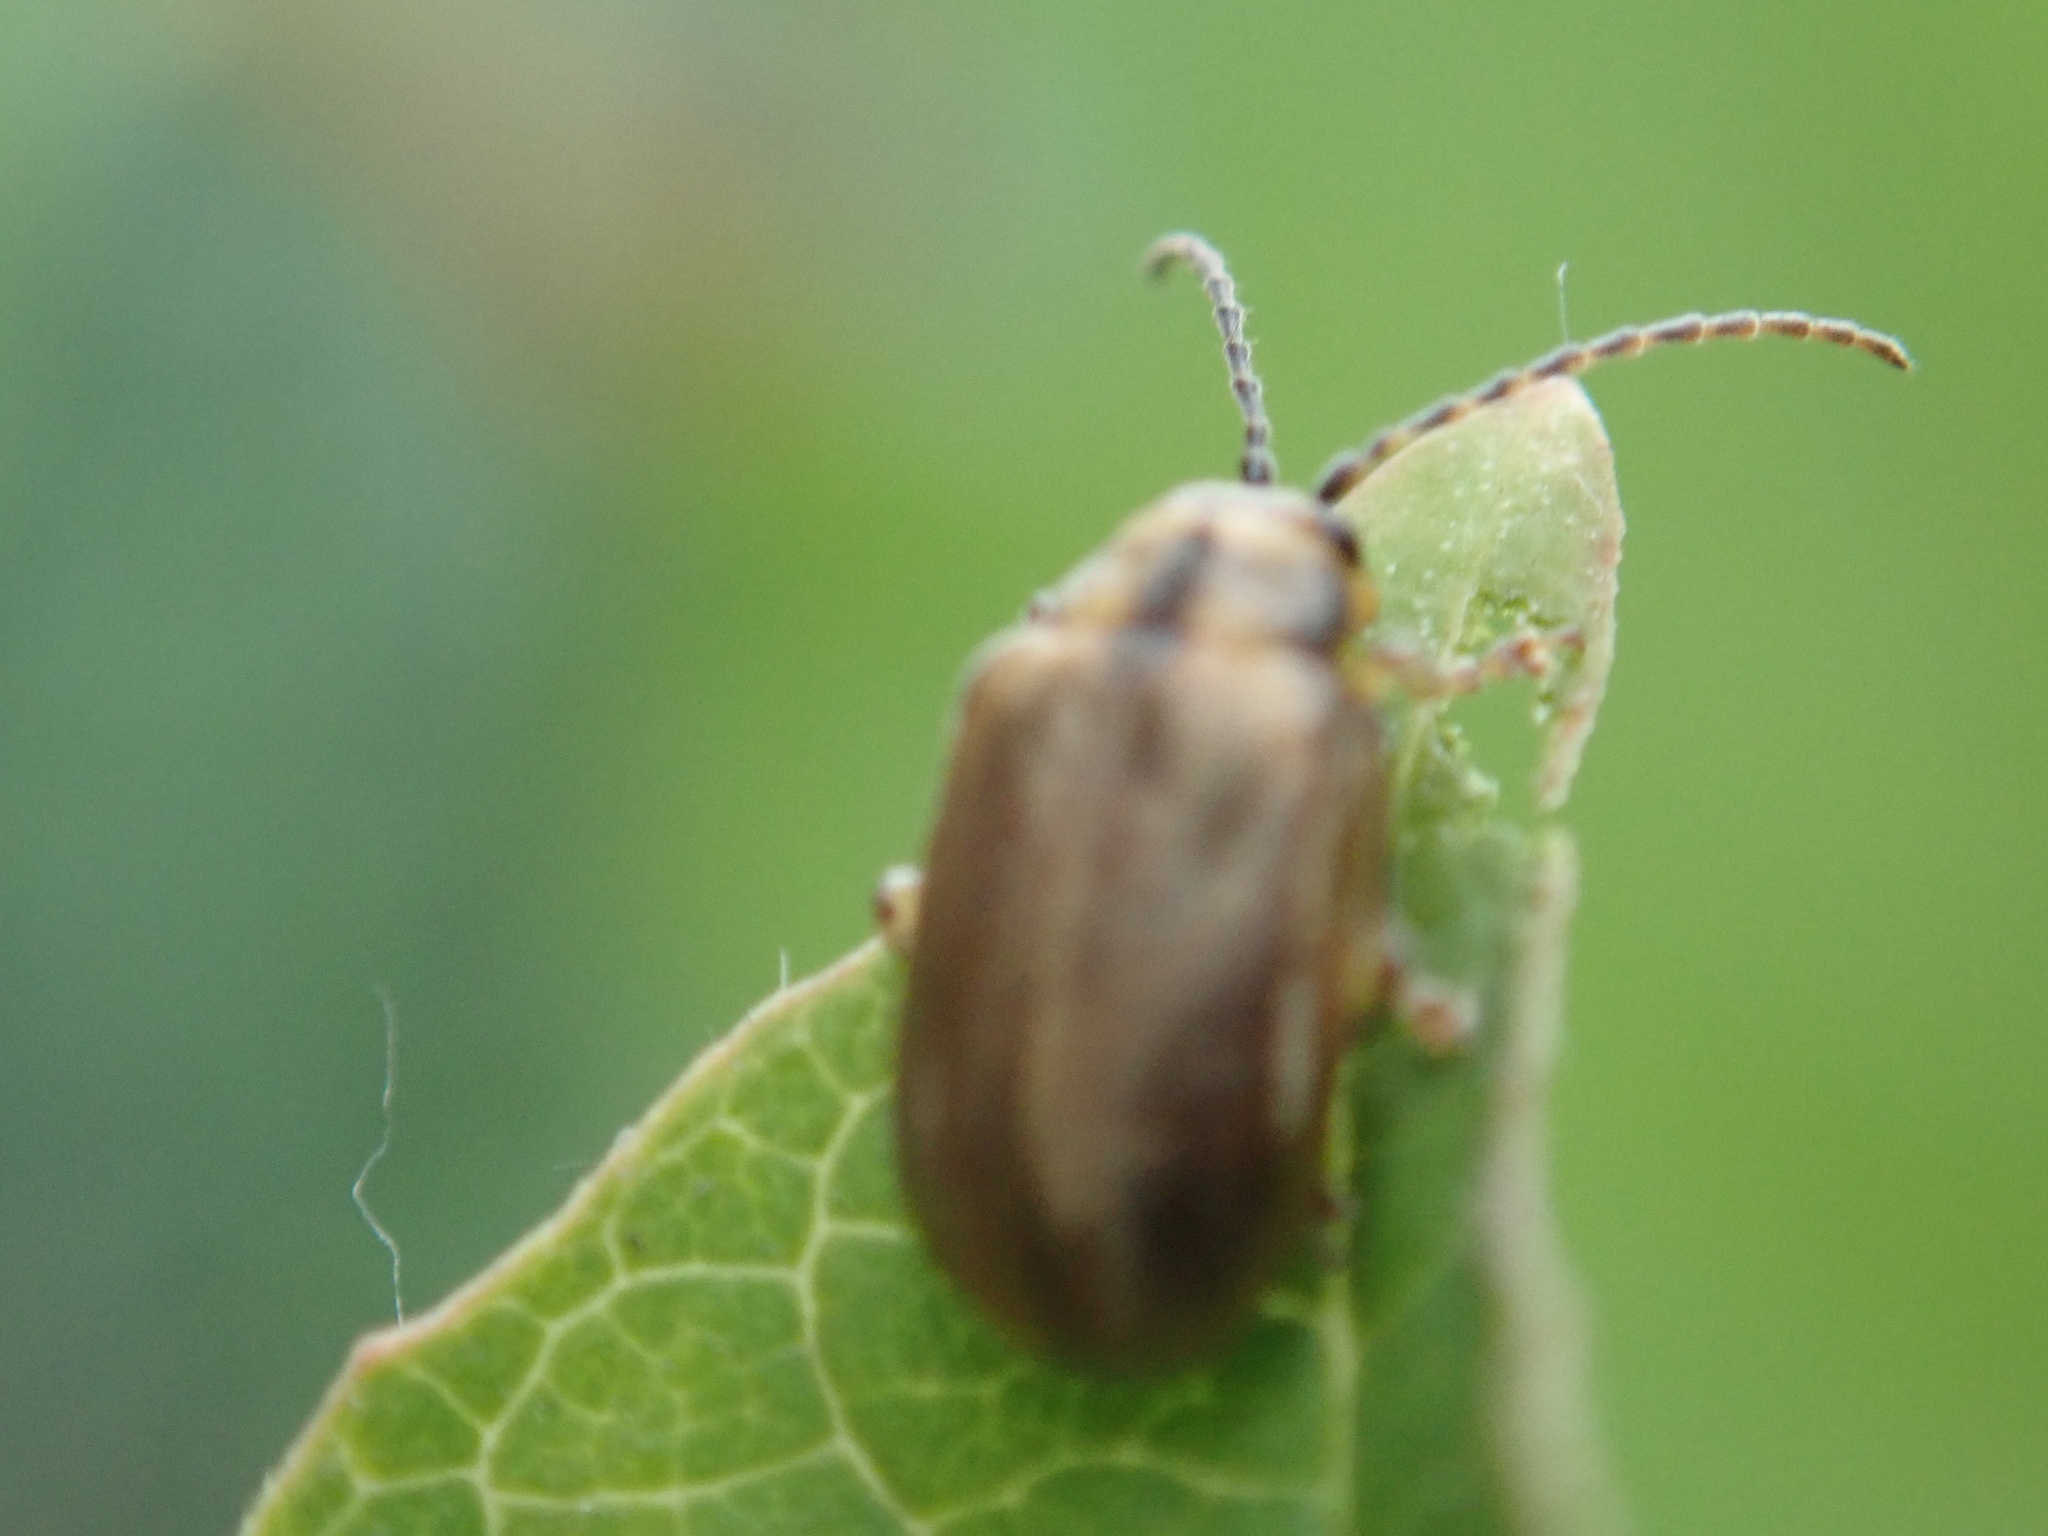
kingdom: Animalia
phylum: Arthropoda
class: Insecta
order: Coleoptera
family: Chrysomelidae
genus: Pyrrhalta
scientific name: Pyrrhalta viburni
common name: Guelder-rose leaf beetle
